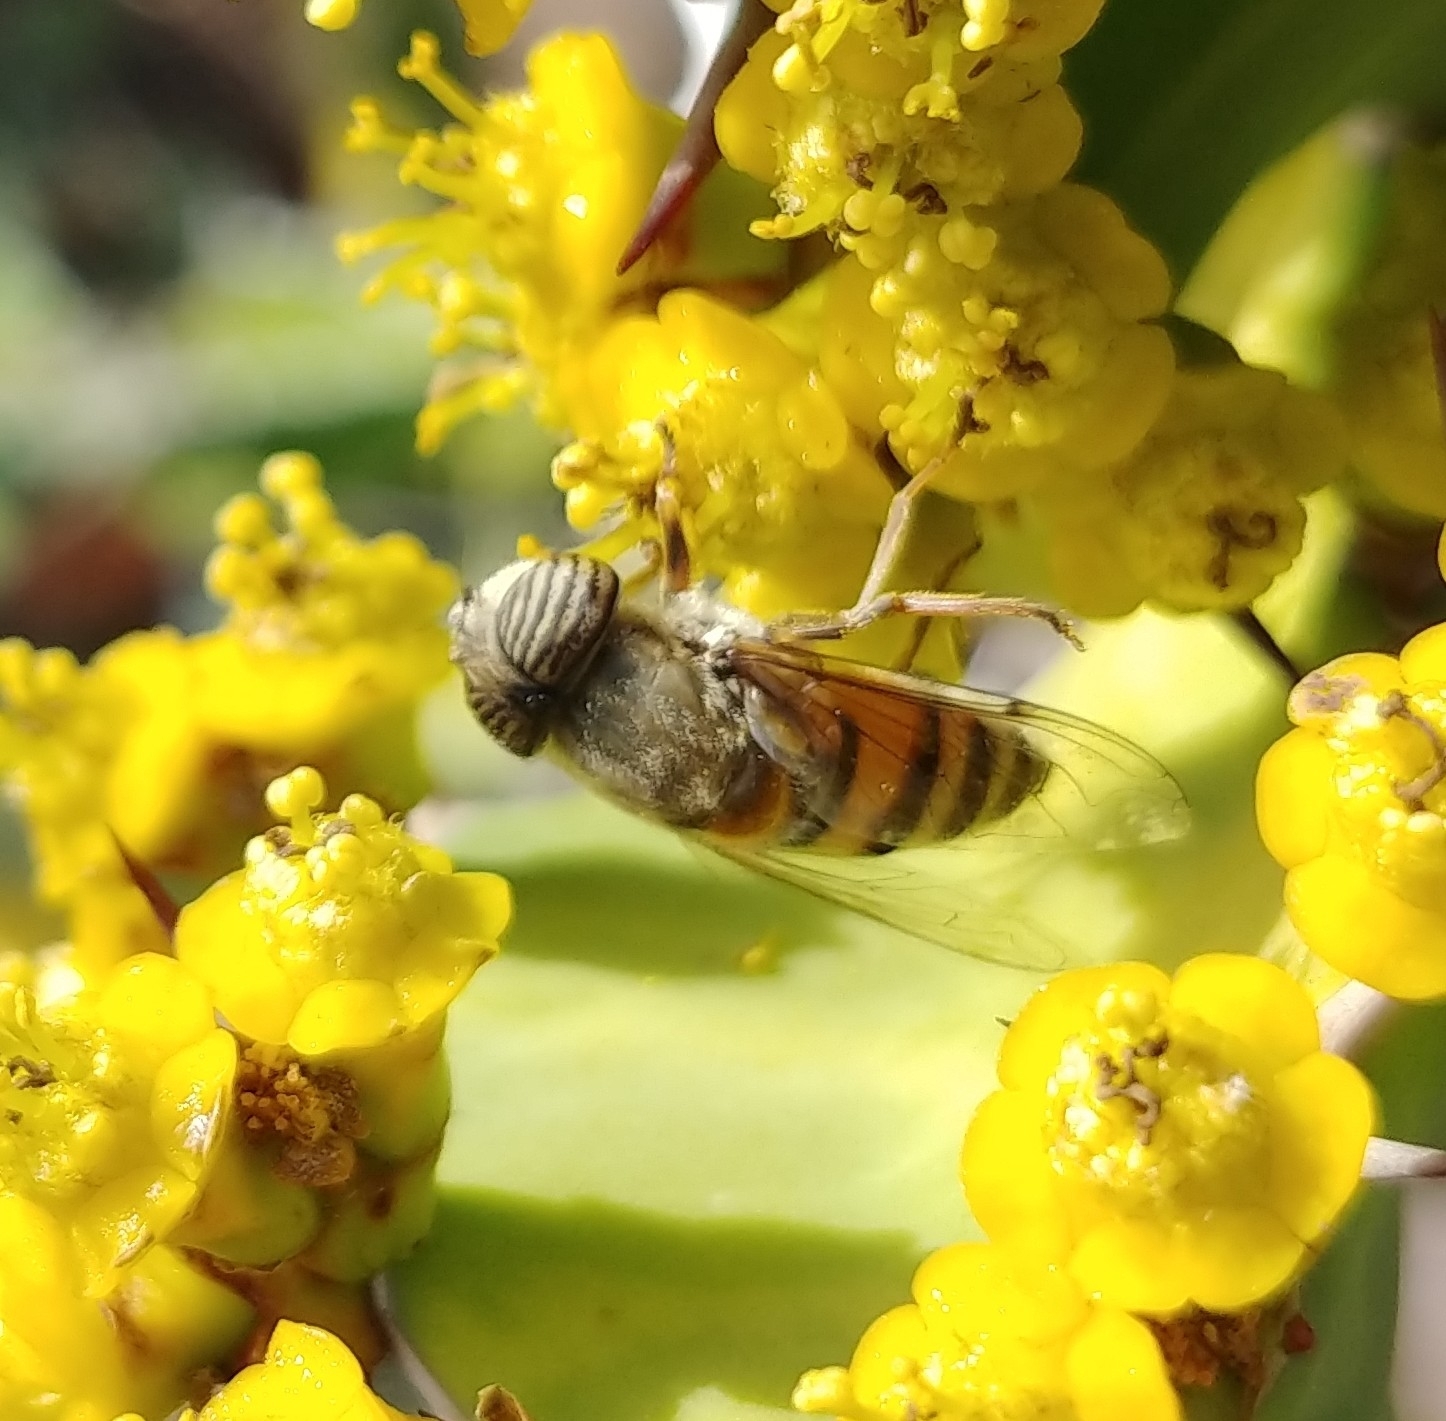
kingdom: Animalia
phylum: Arthropoda
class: Insecta
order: Diptera
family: Syrphidae
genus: Eristalinus
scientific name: Eristalinus taeniops
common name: Syrphid fly
